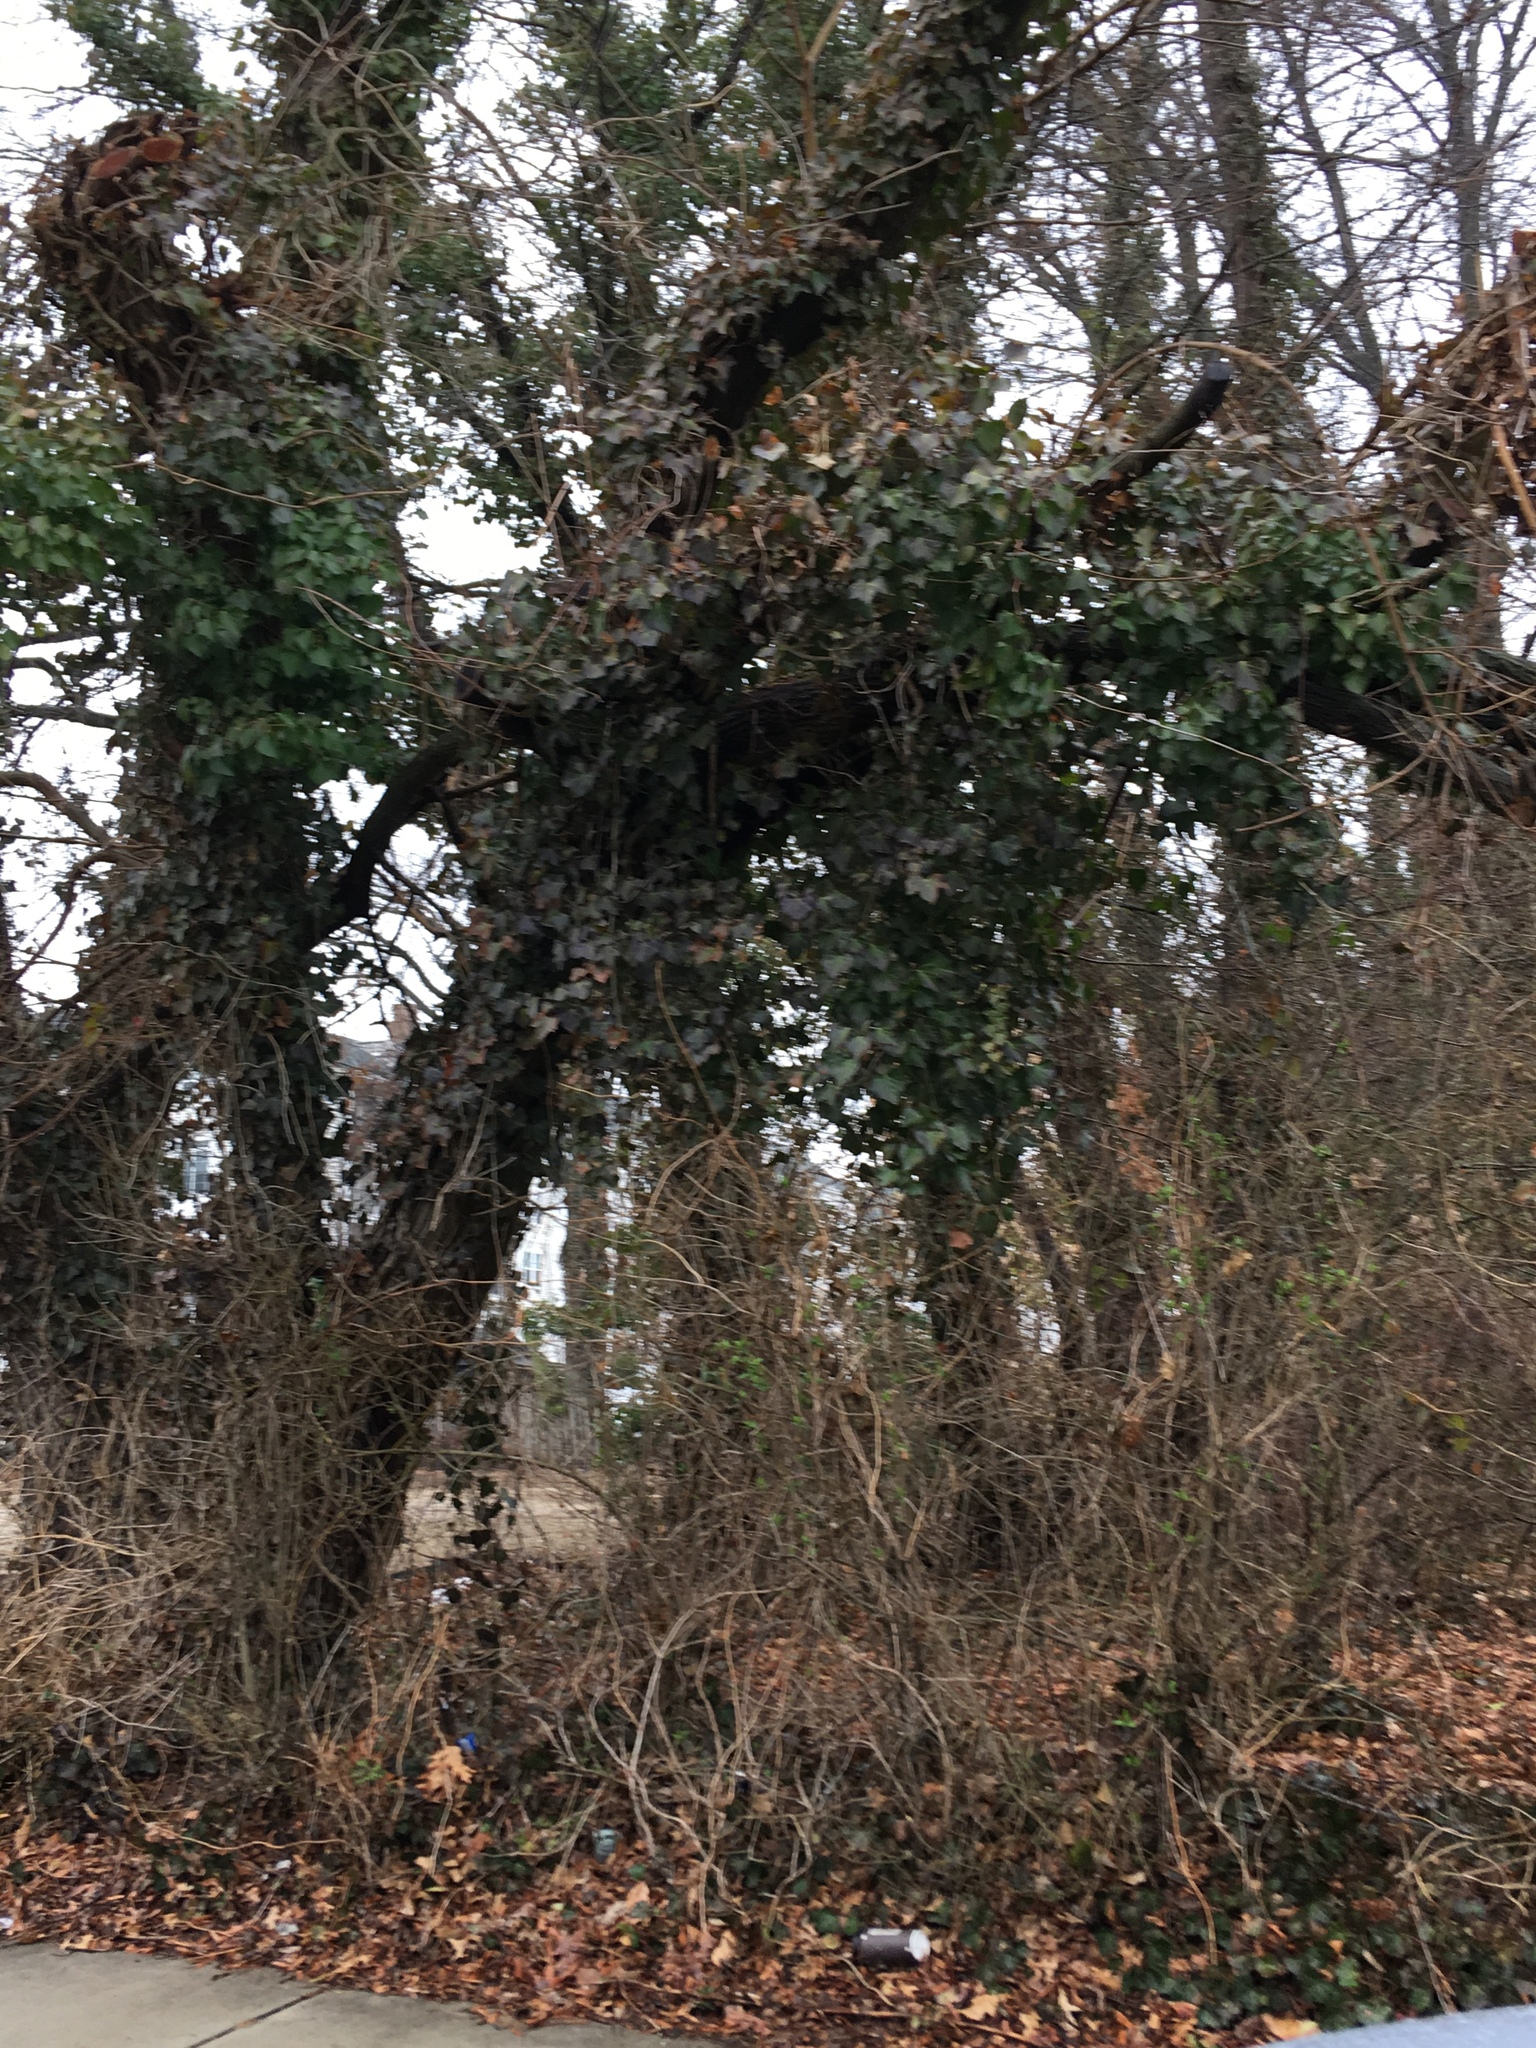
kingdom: Plantae
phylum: Tracheophyta
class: Magnoliopsida
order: Apiales
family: Araliaceae
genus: Hedera
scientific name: Hedera helix
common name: Ivy
